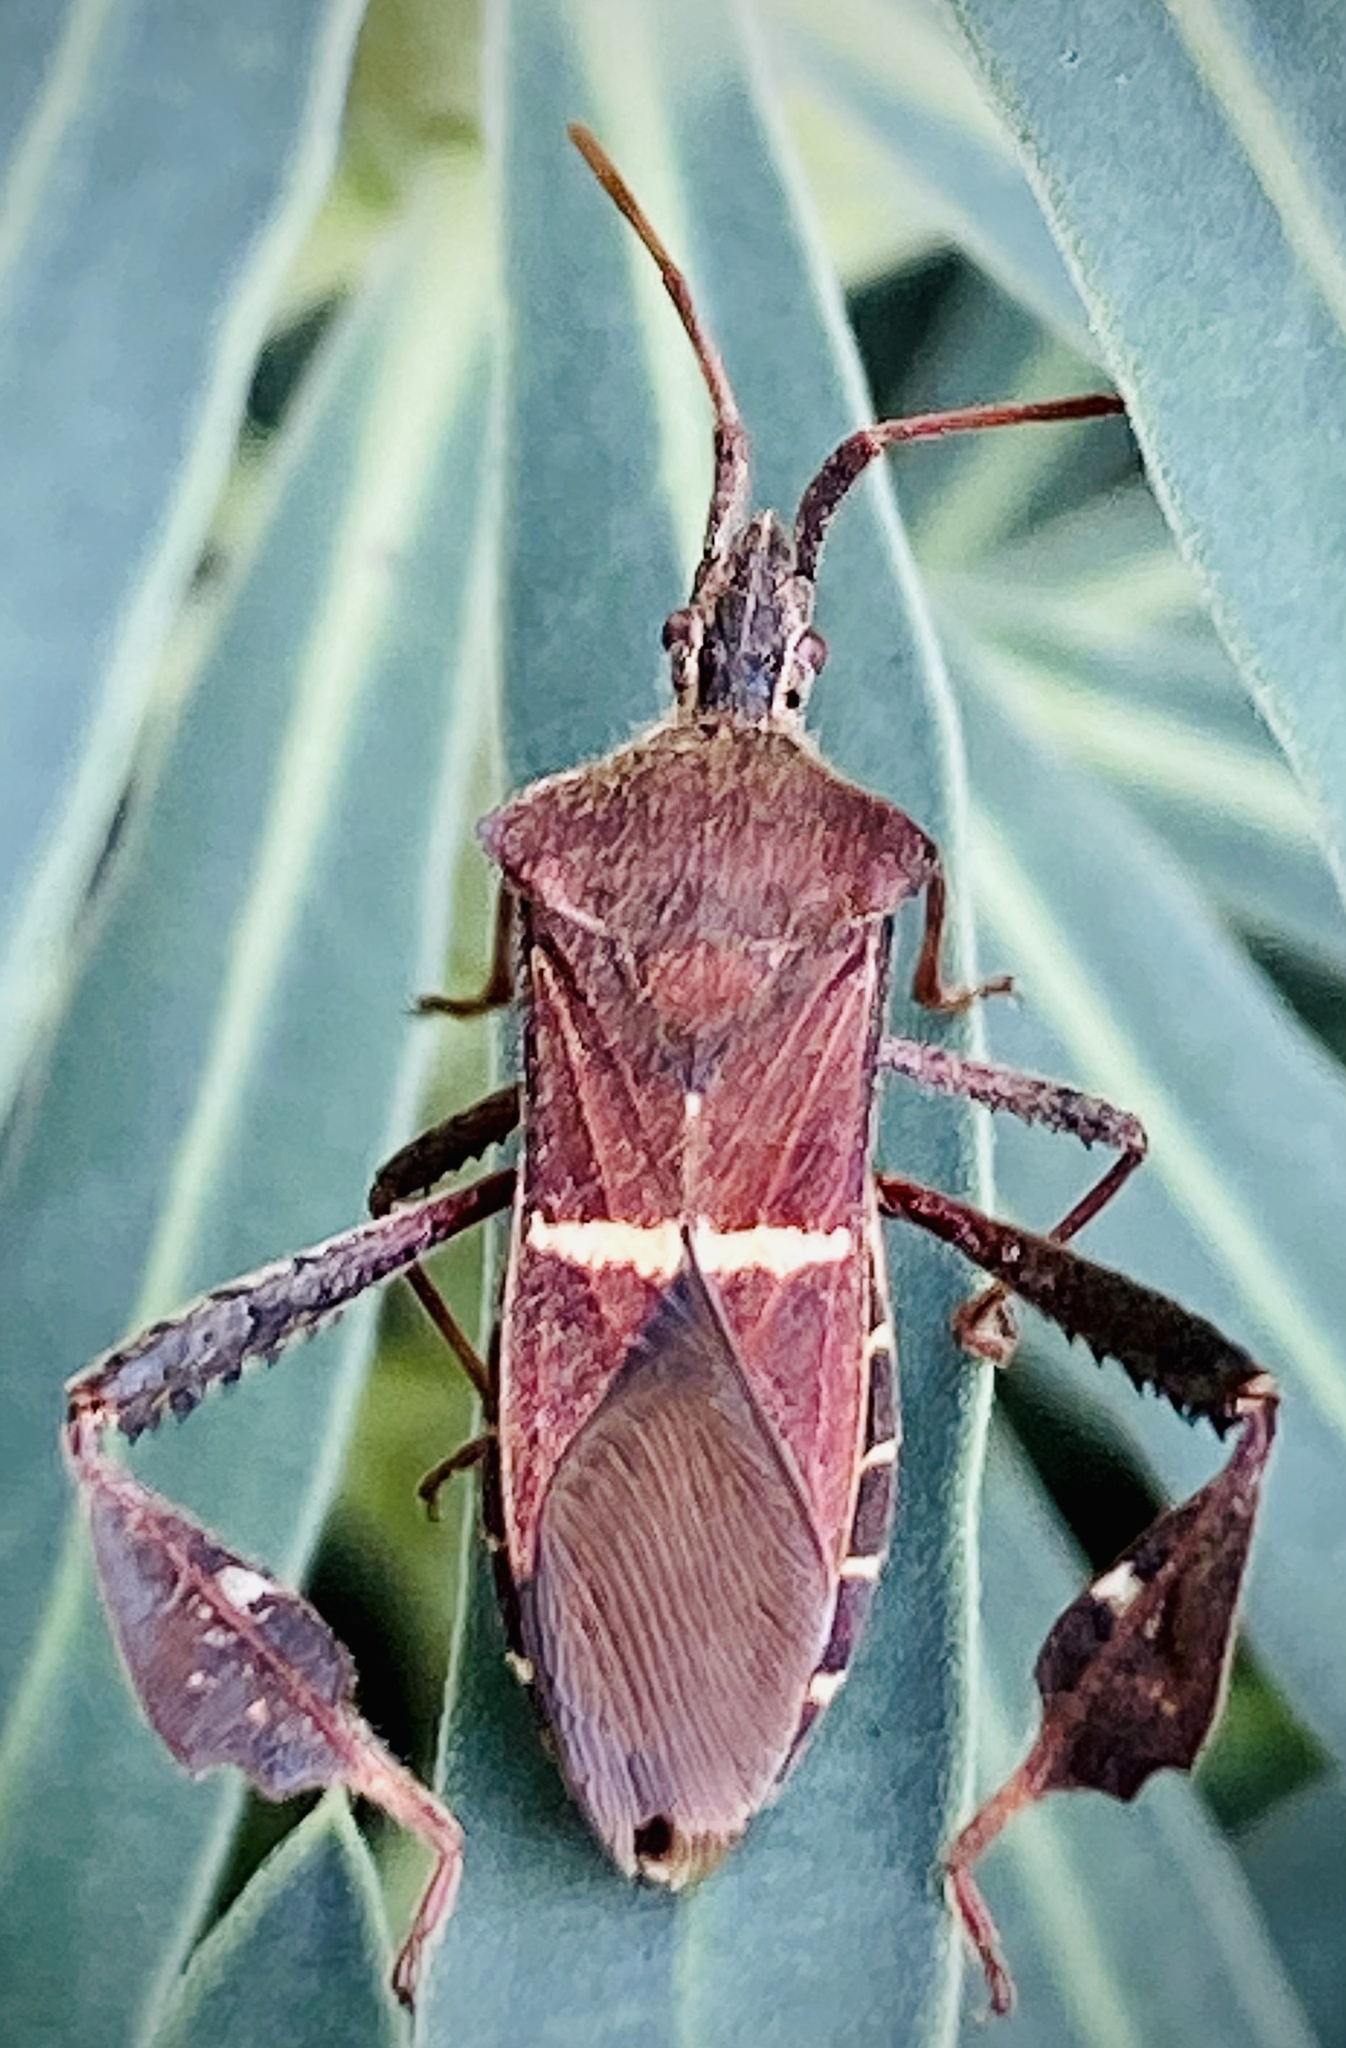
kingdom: Animalia
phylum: Arthropoda
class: Insecta
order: Hemiptera
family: Coreidae
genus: Leptoglossus
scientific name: Leptoglossus phyllopus
